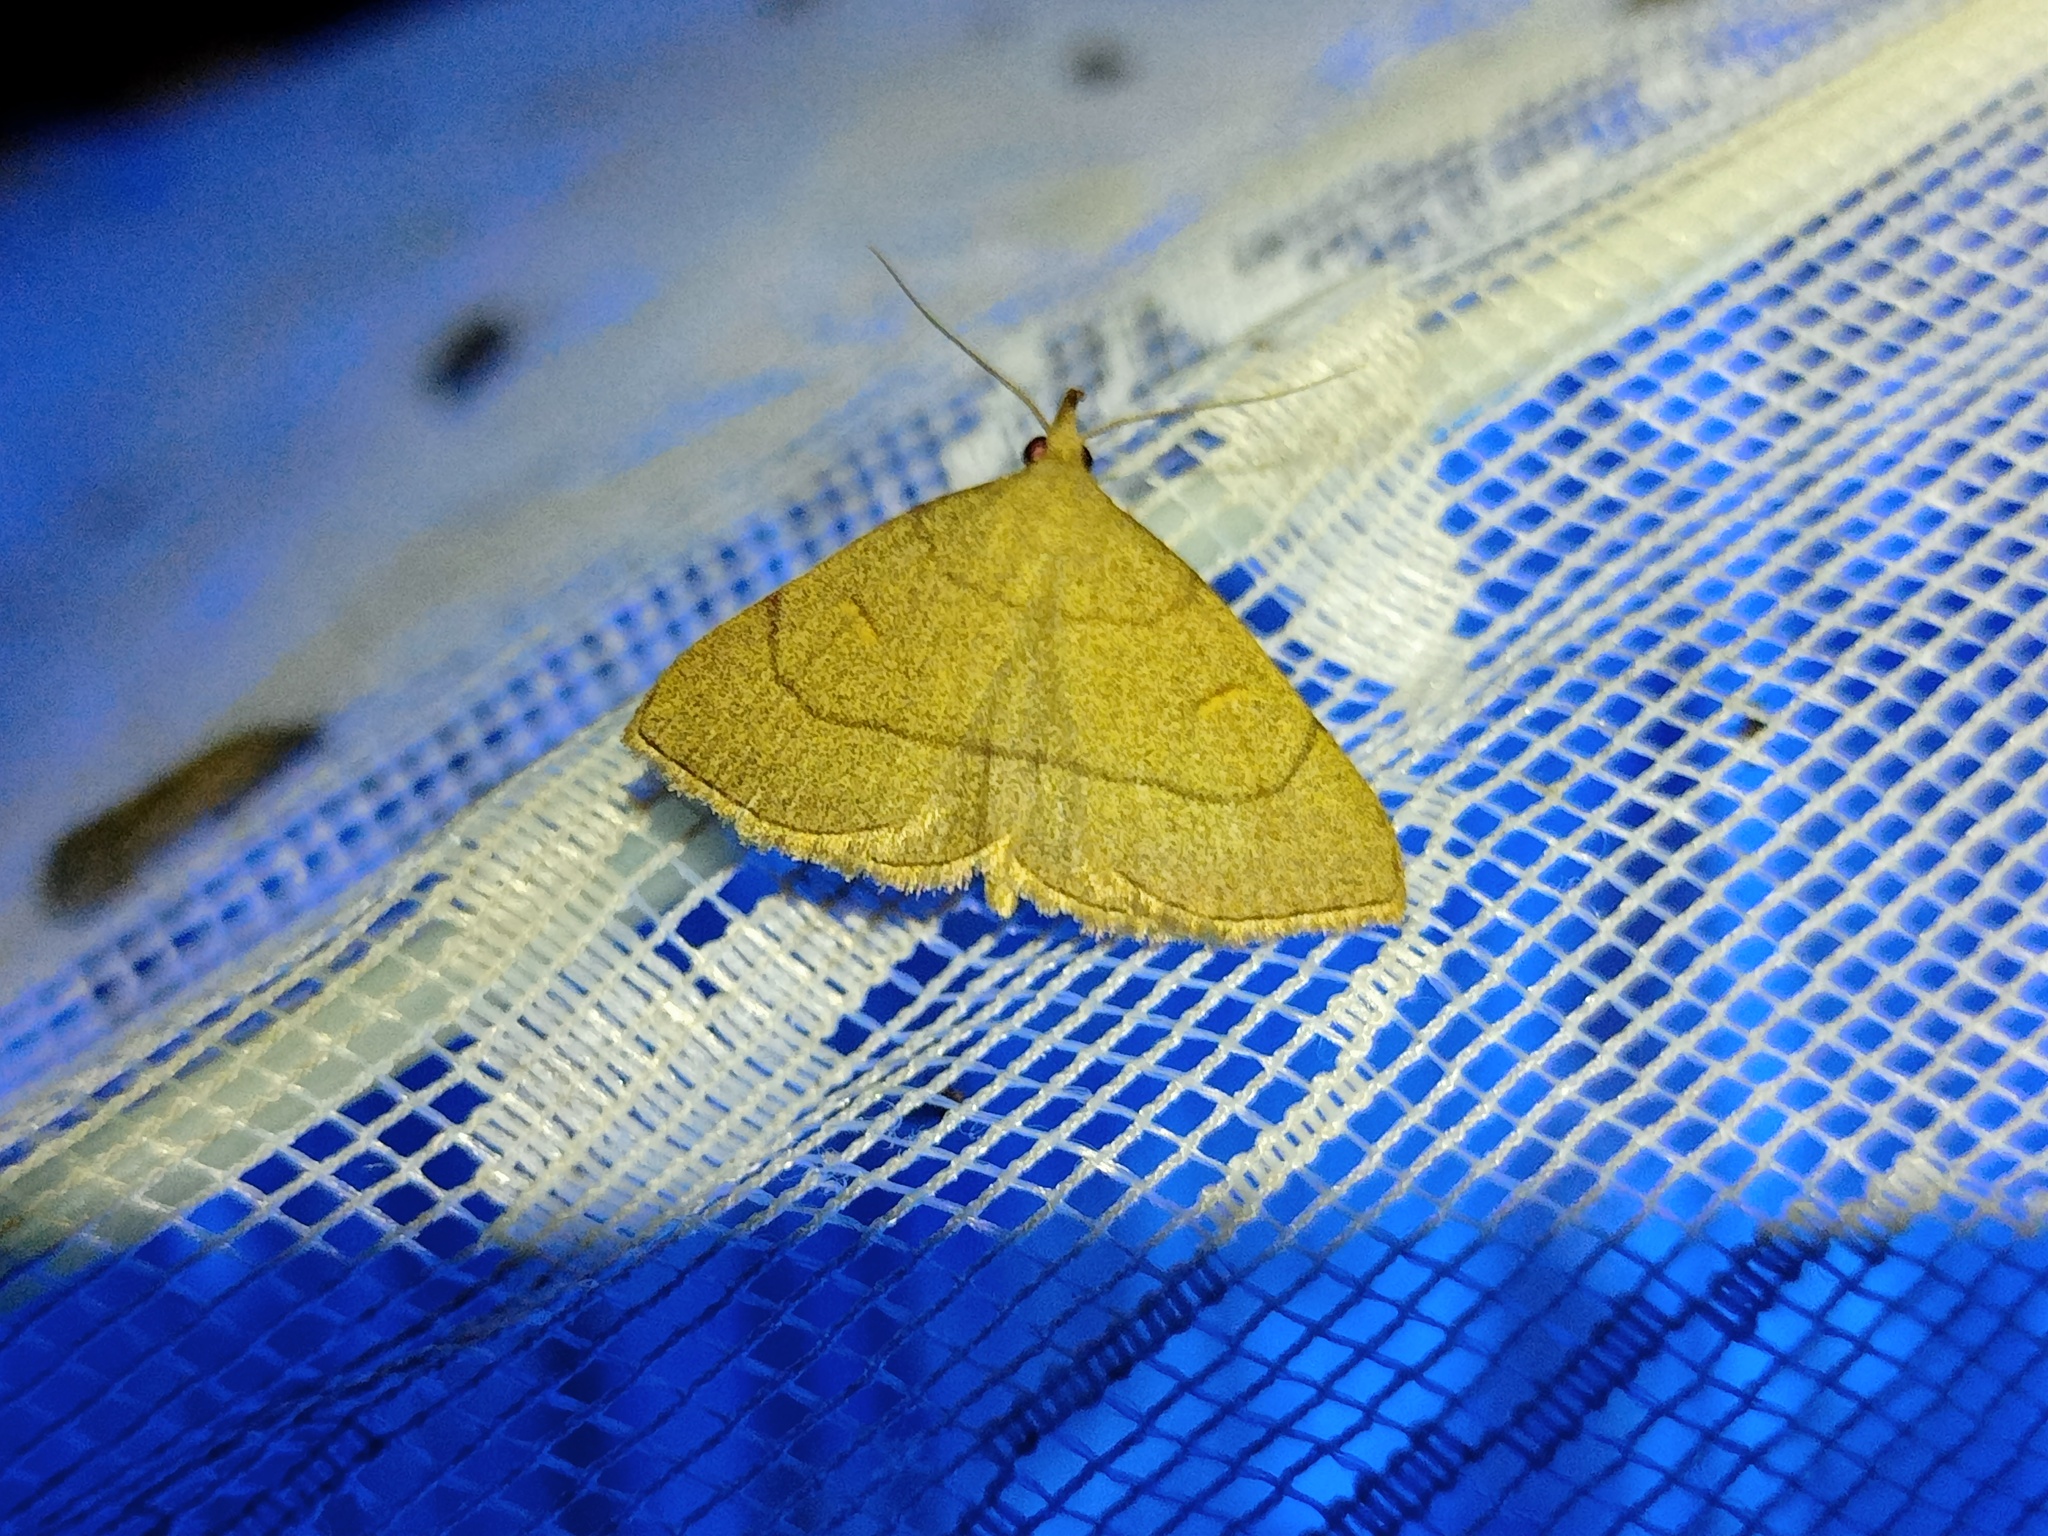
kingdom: Animalia
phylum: Arthropoda
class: Insecta
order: Lepidoptera
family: Erebidae
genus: Paracolax
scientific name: Paracolax tristalis
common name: Clay fan-foot
